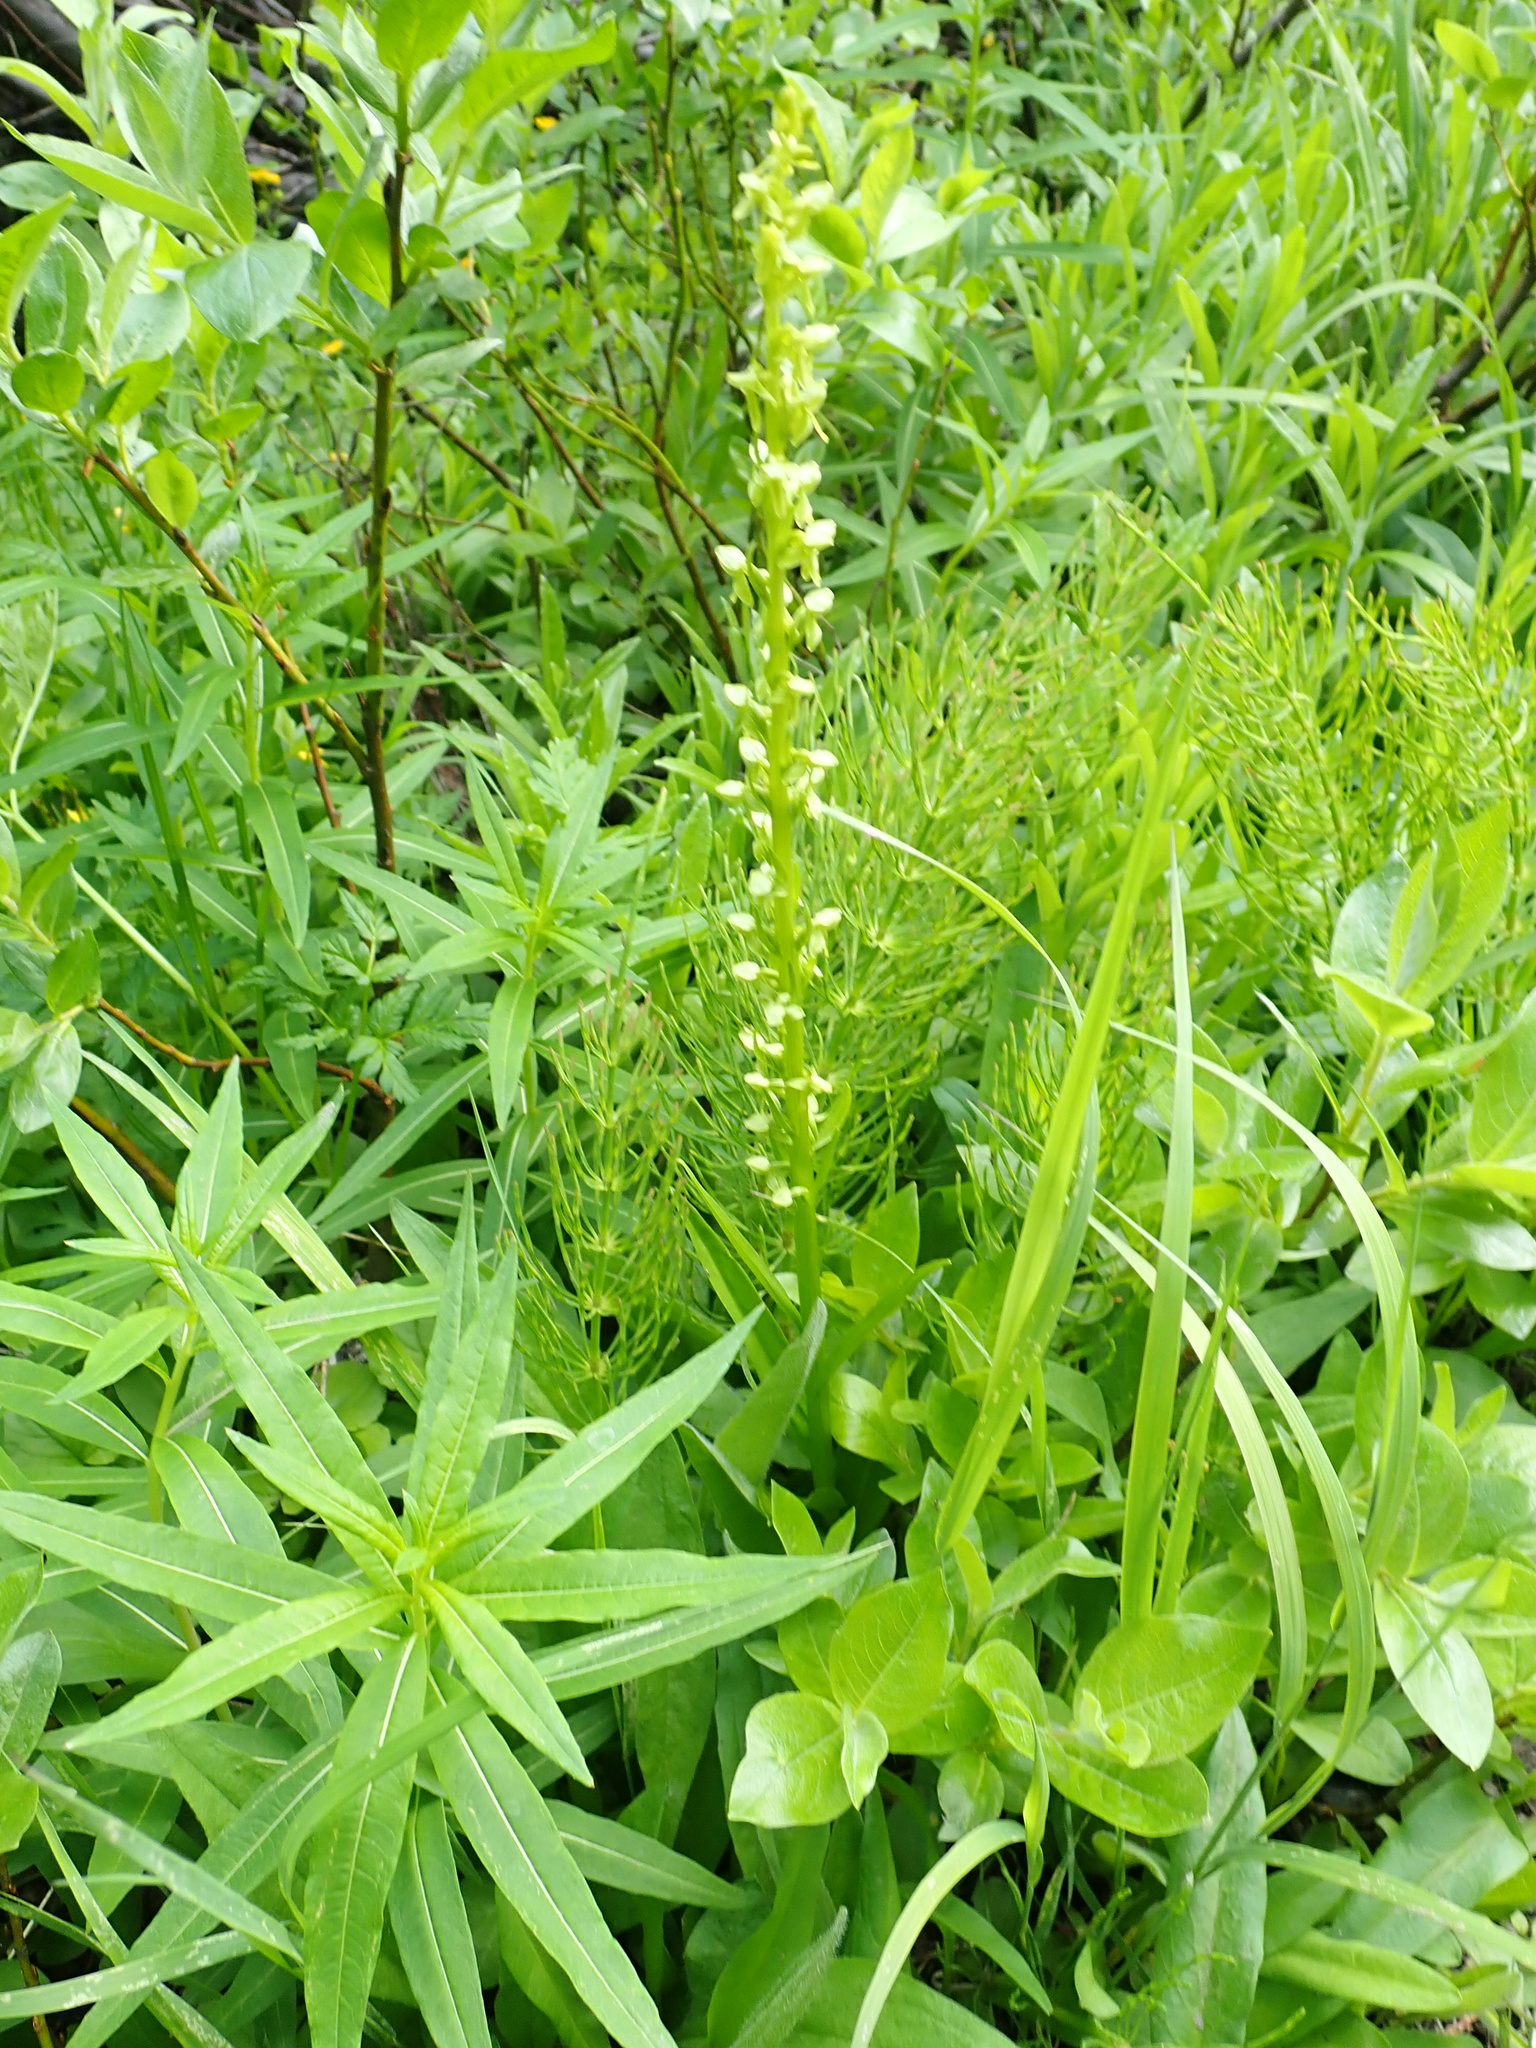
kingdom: Plantae
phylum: Tracheophyta
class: Liliopsida
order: Asparagales
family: Orchidaceae
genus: Platanthera
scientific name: Platanthera stricta
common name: Slender bog orchid
